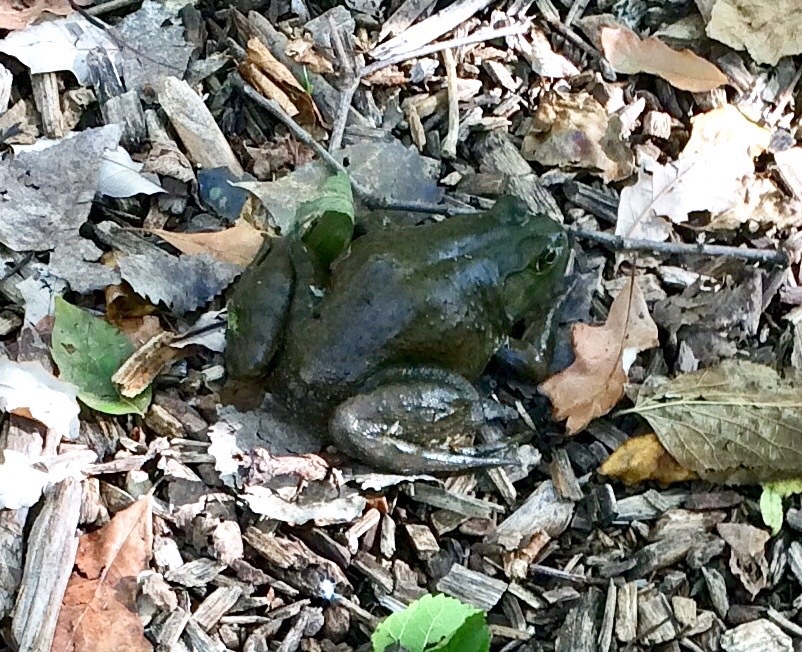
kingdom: Animalia
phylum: Chordata
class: Amphibia
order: Anura
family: Ranidae
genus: Lithobates
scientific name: Lithobates catesbeianus
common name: American bullfrog
